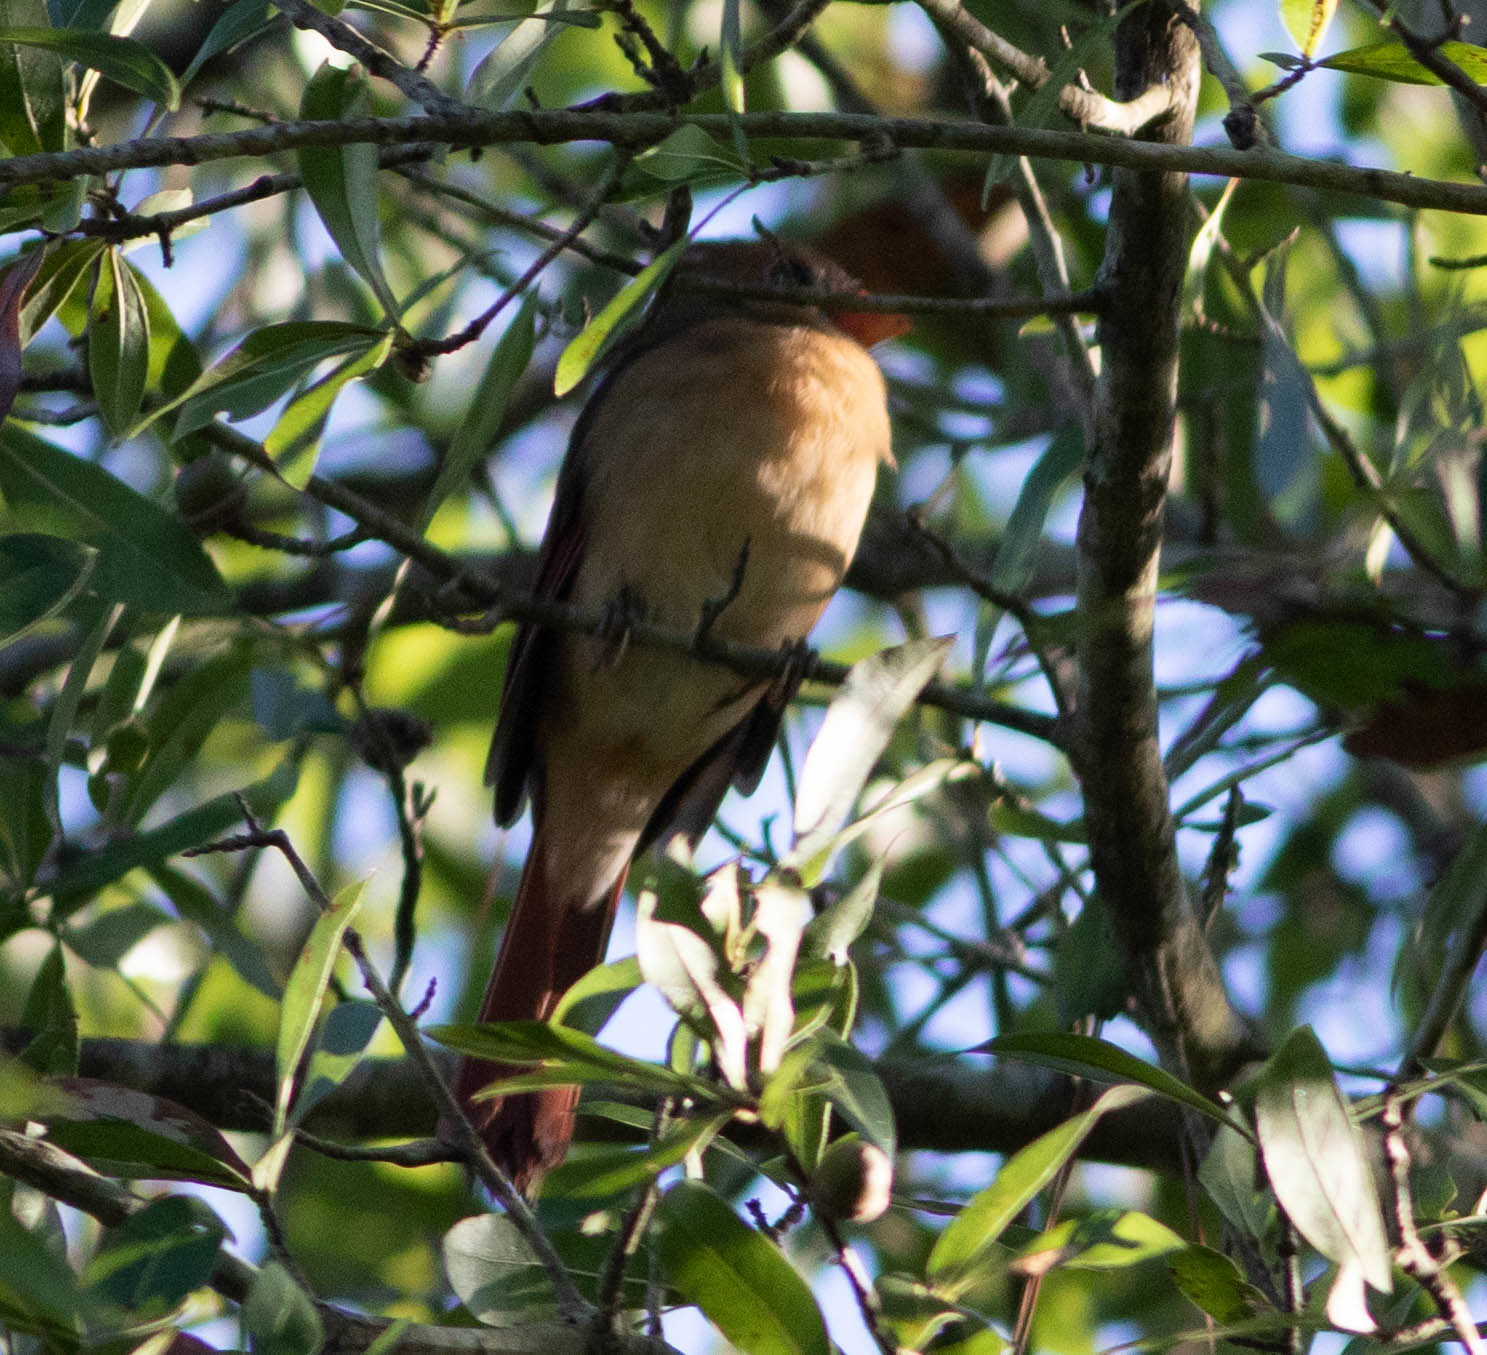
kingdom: Animalia
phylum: Chordata
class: Aves
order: Passeriformes
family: Cardinalidae
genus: Cardinalis
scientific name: Cardinalis cardinalis
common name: Northern cardinal
